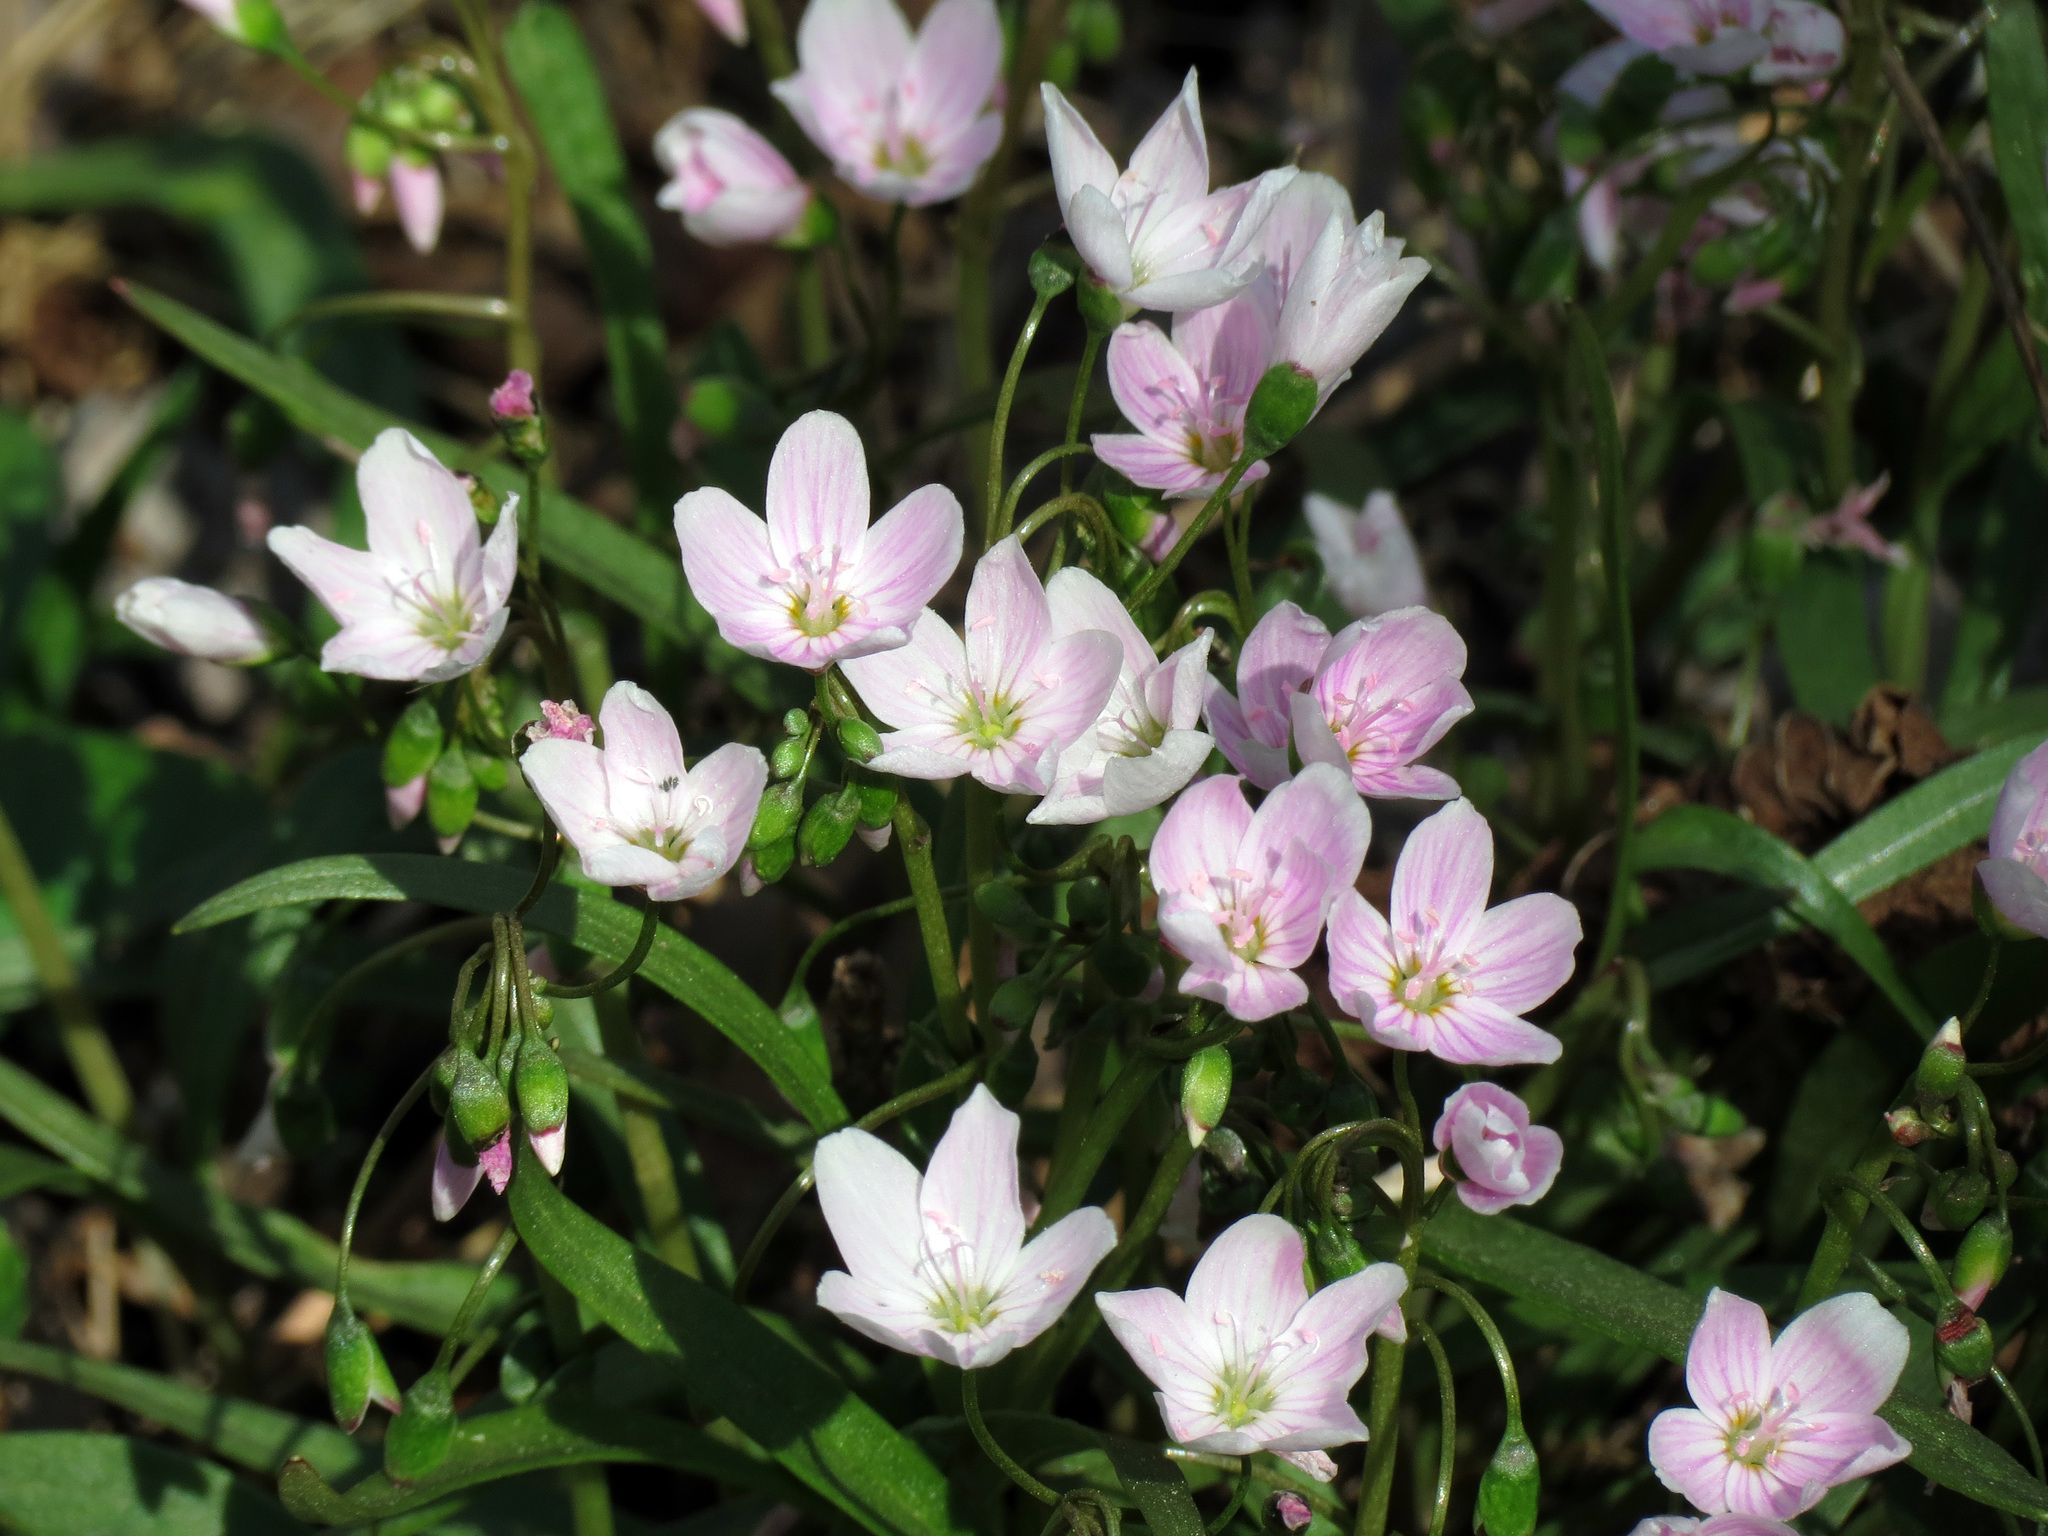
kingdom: Plantae
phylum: Tracheophyta
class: Magnoliopsida
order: Caryophyllales
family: Montiaceae
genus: Claytonia
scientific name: Claytonia virginica
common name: Virginia springbeauty
